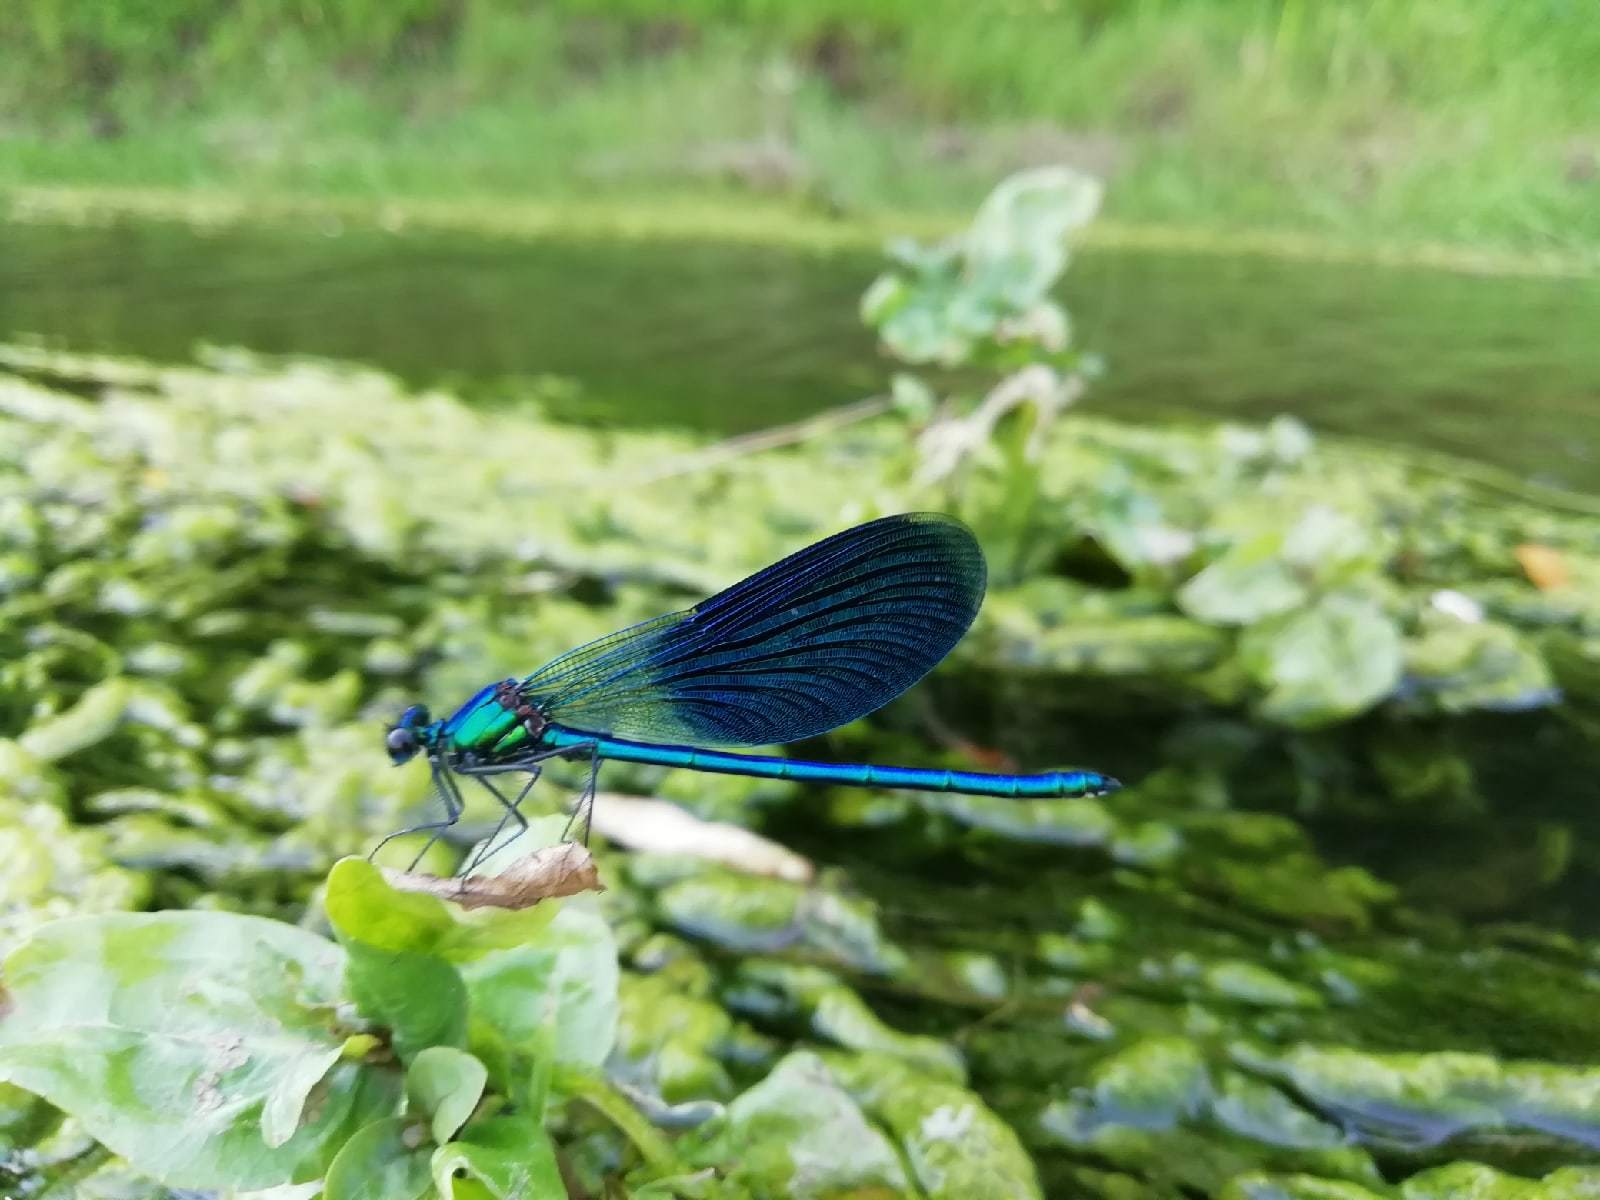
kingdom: Animalia
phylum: Arthropoda
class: Insecta
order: Odonata
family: Calopterygidae
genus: Calopteryx
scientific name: Calopteryx splendens
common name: Banded demoiselle
